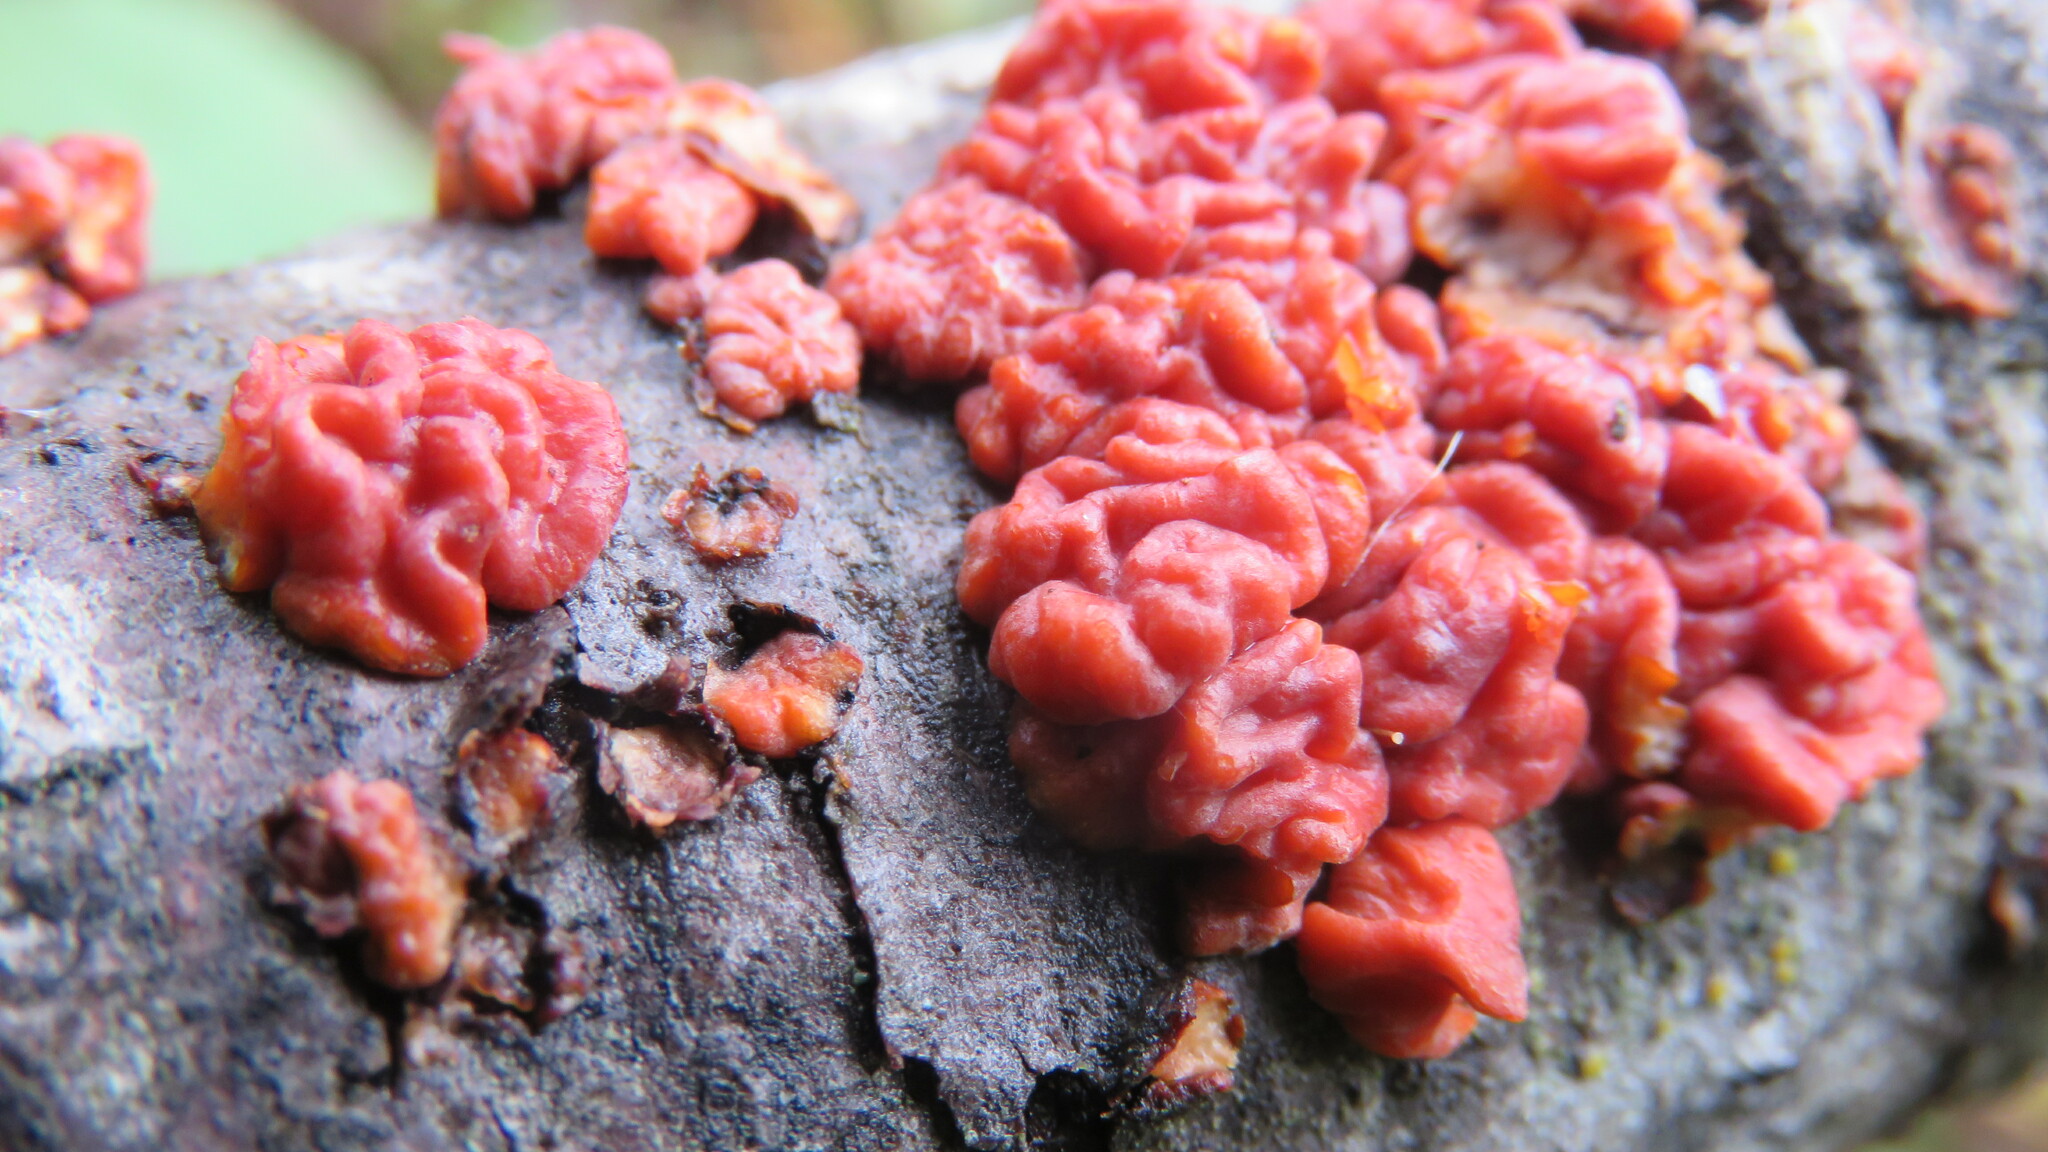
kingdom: Fungi
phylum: Basidiomycota
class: Agaricomycetes
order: Russulales
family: Peniophoraceae
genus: Peniophora
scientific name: Peniophora rufa
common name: Red tree brain fungus
